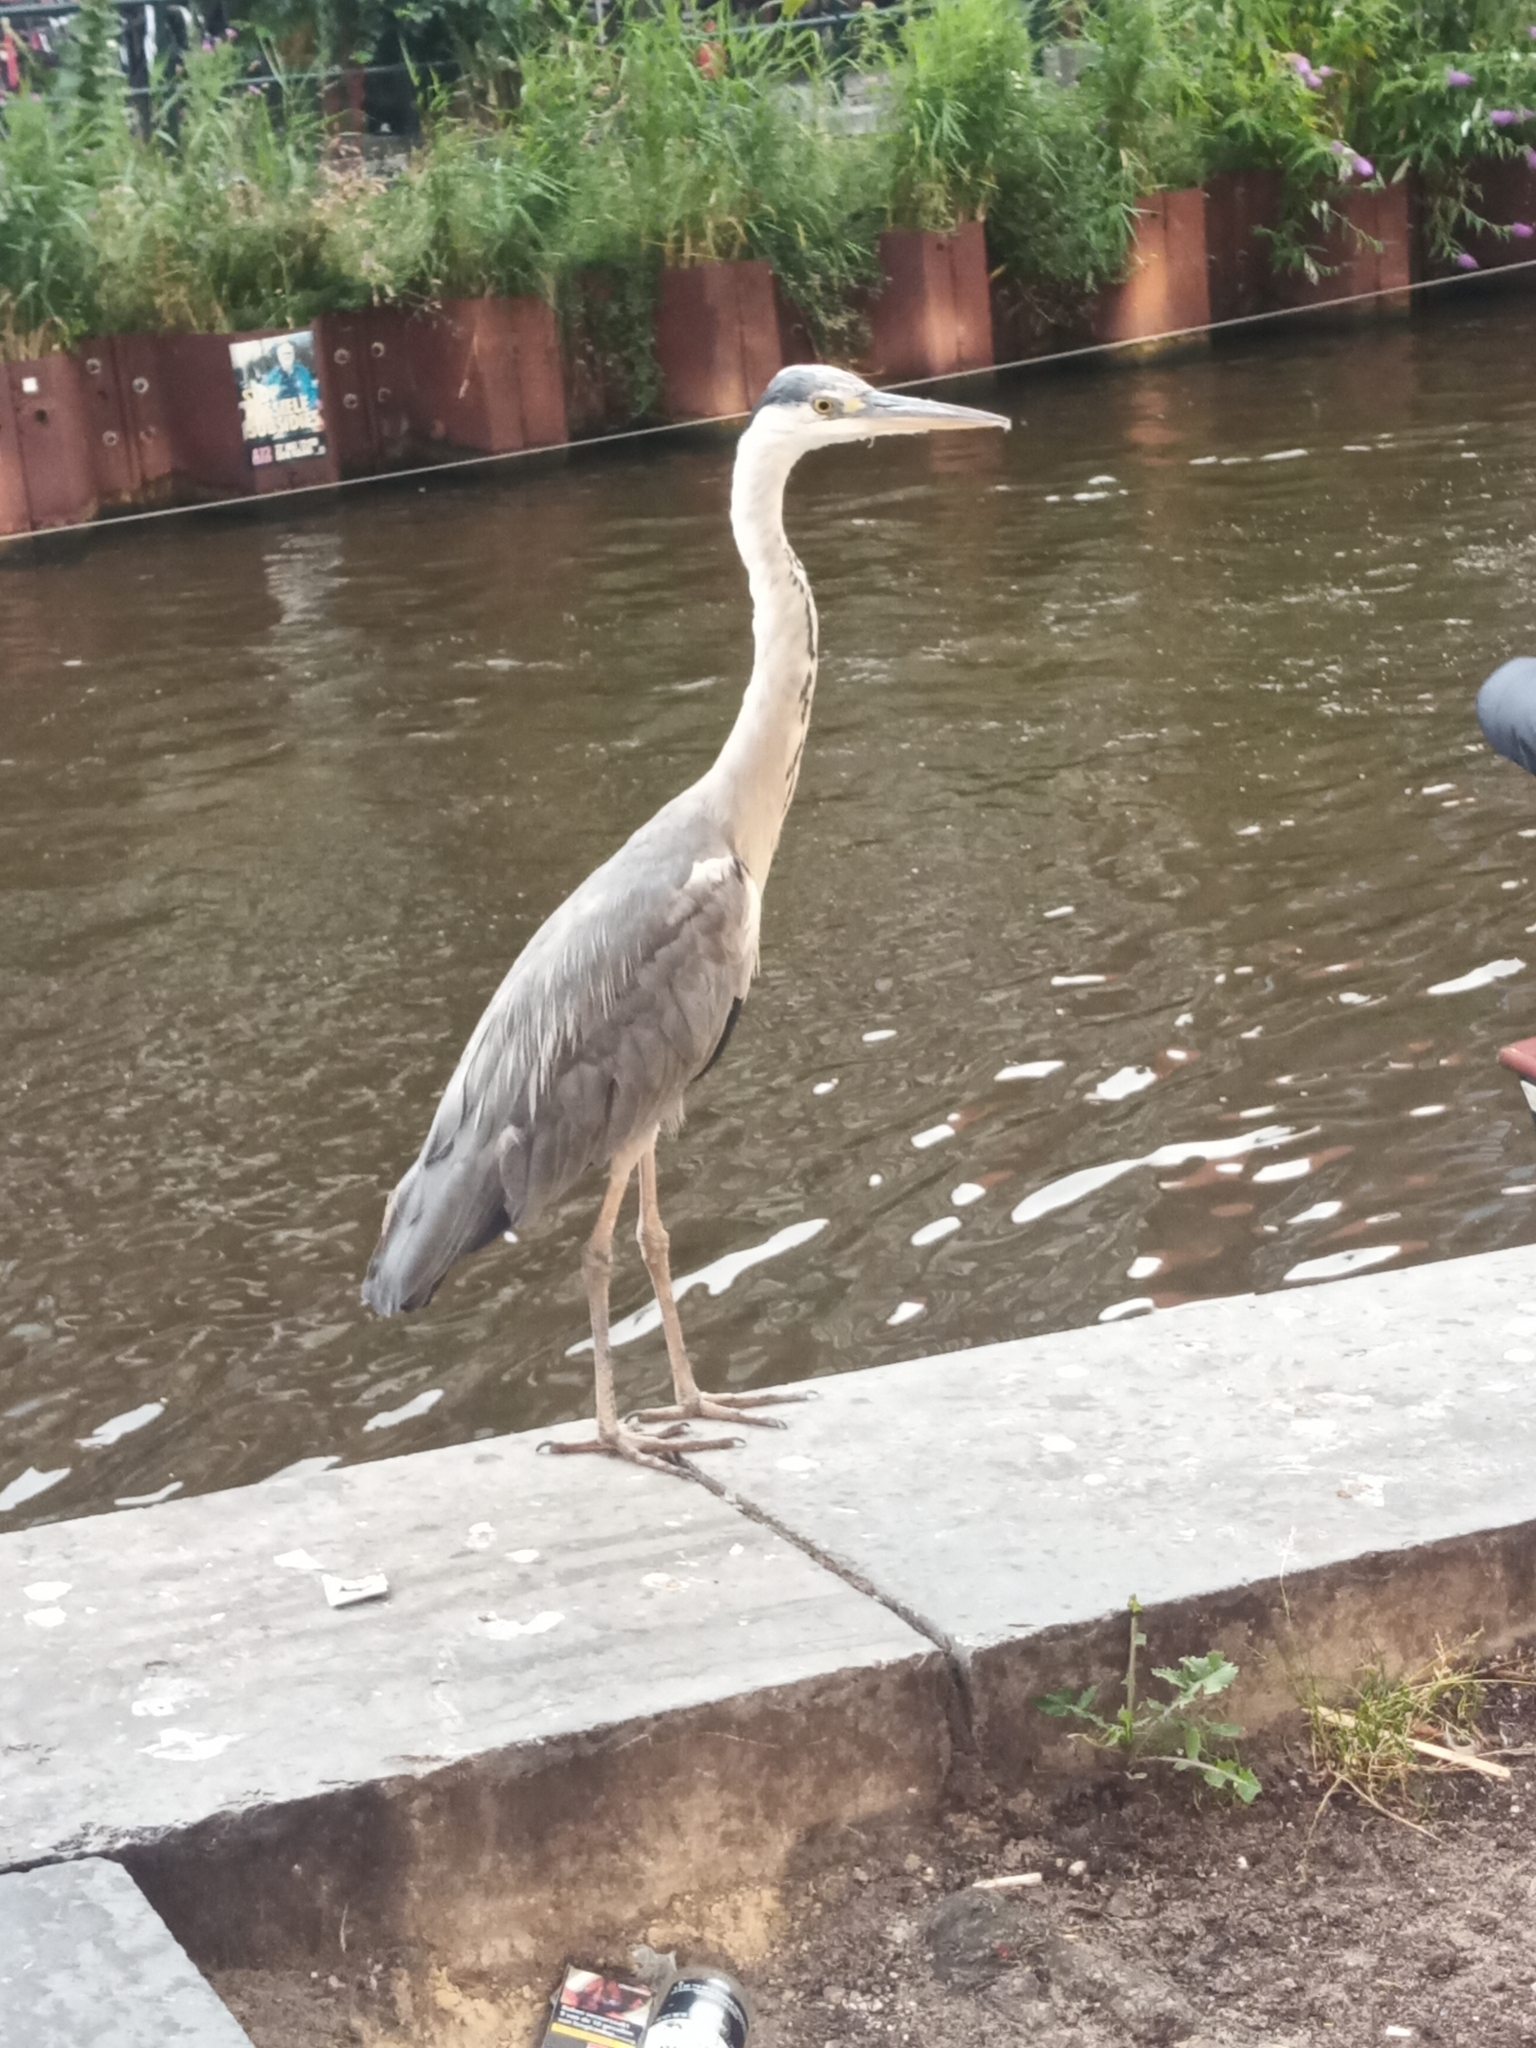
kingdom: Animalia
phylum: Chordata
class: Aves
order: Pelecaniformes
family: Ardeidae
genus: Ardea
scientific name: Ardea cinerea
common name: Grey heron
